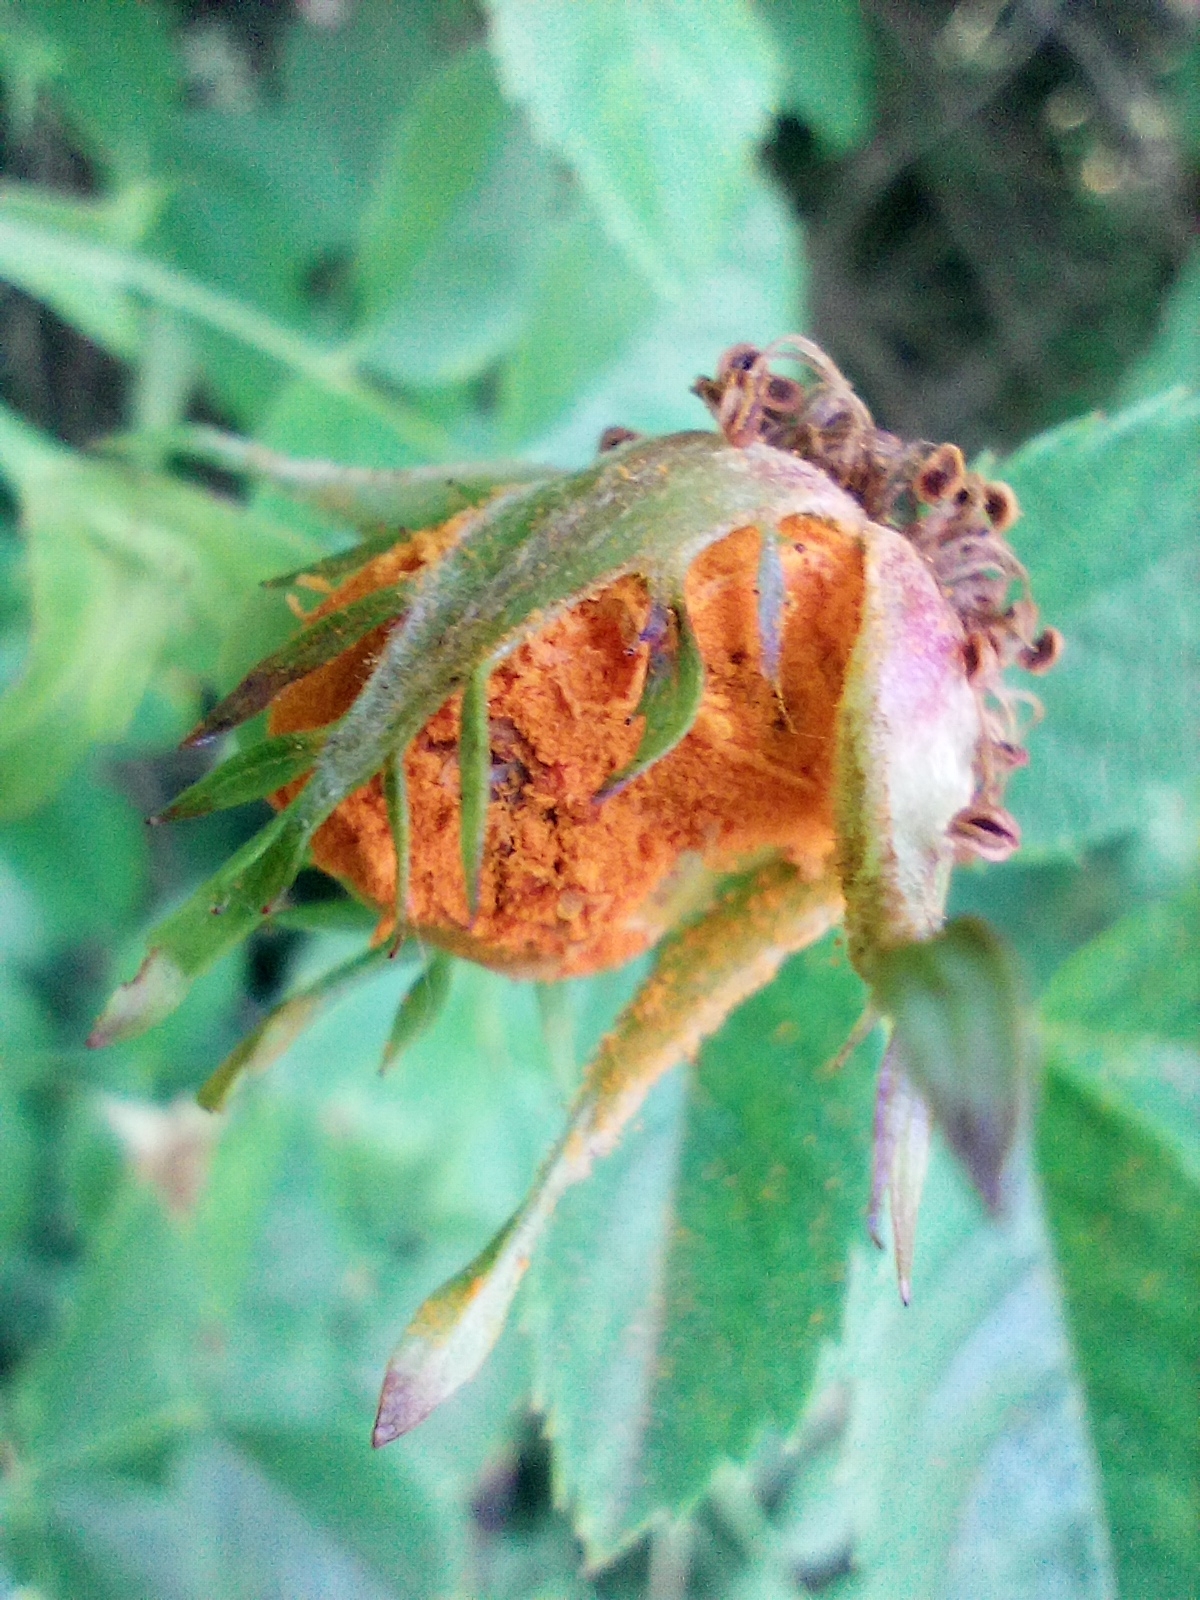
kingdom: Fungi
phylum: Basidiomycota
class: Pucciniomycetes
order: Pucciniales
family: Phragmidiaceae
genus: Phragmidium
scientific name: Phragmidium mucronatum
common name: Rose rust
